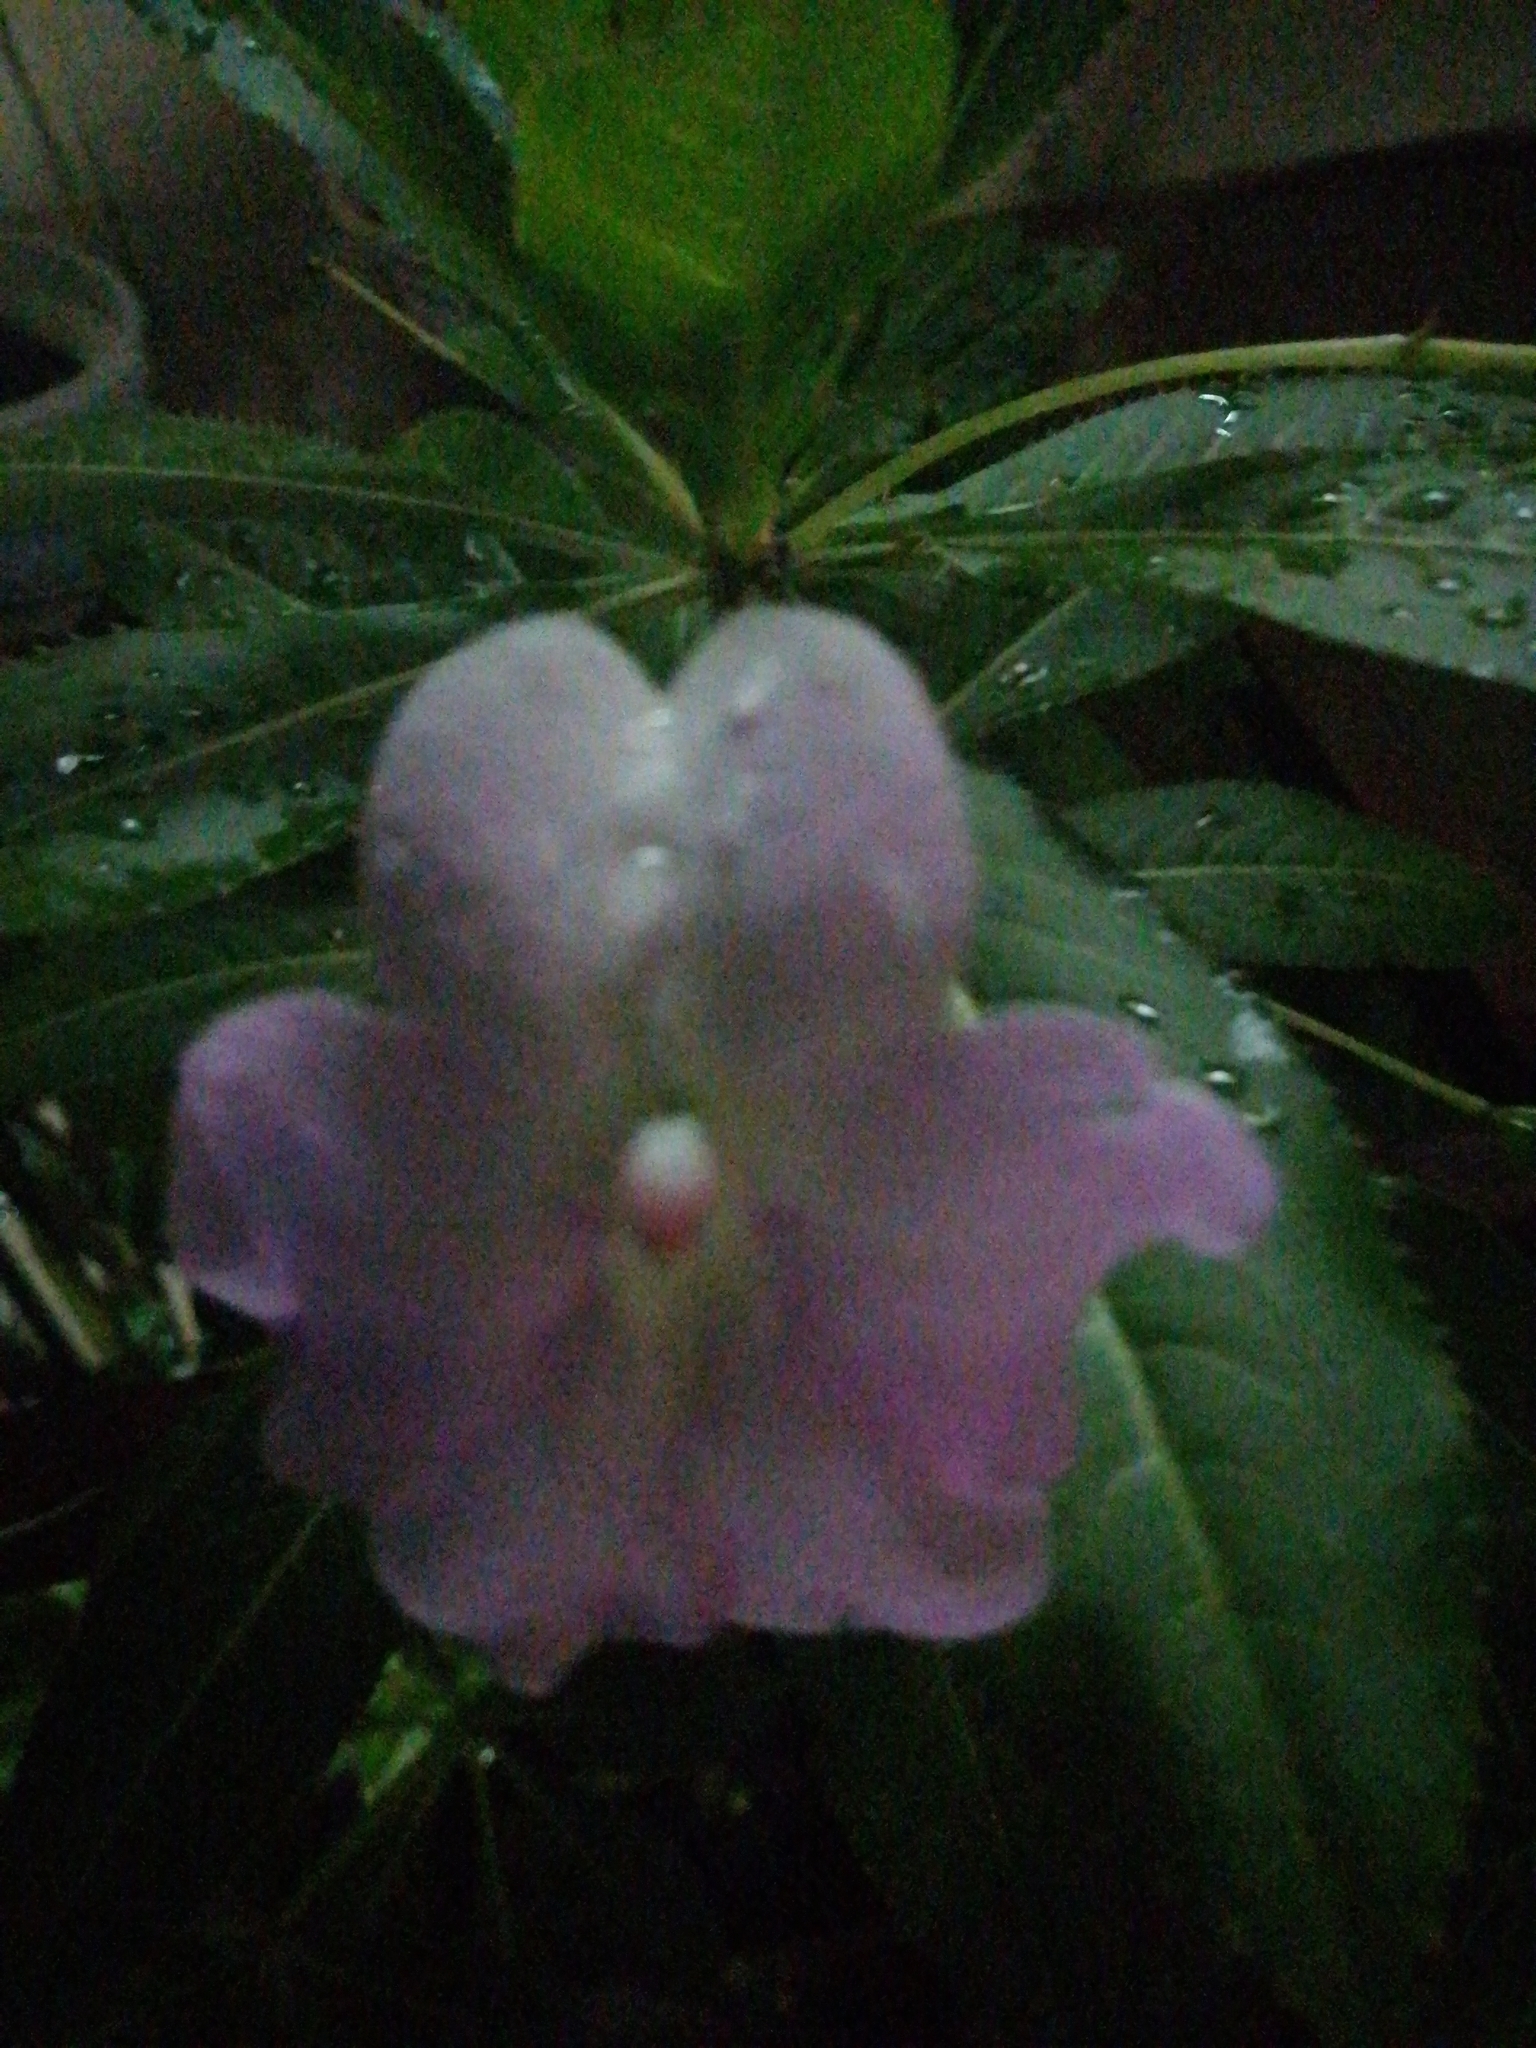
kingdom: Plantae
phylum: Tracheophyta
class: Magnoliopsida
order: Ericales
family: Balsaminaceae
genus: Impatiens
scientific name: Impatiens sodenii
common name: Oliver's touch-me-not
